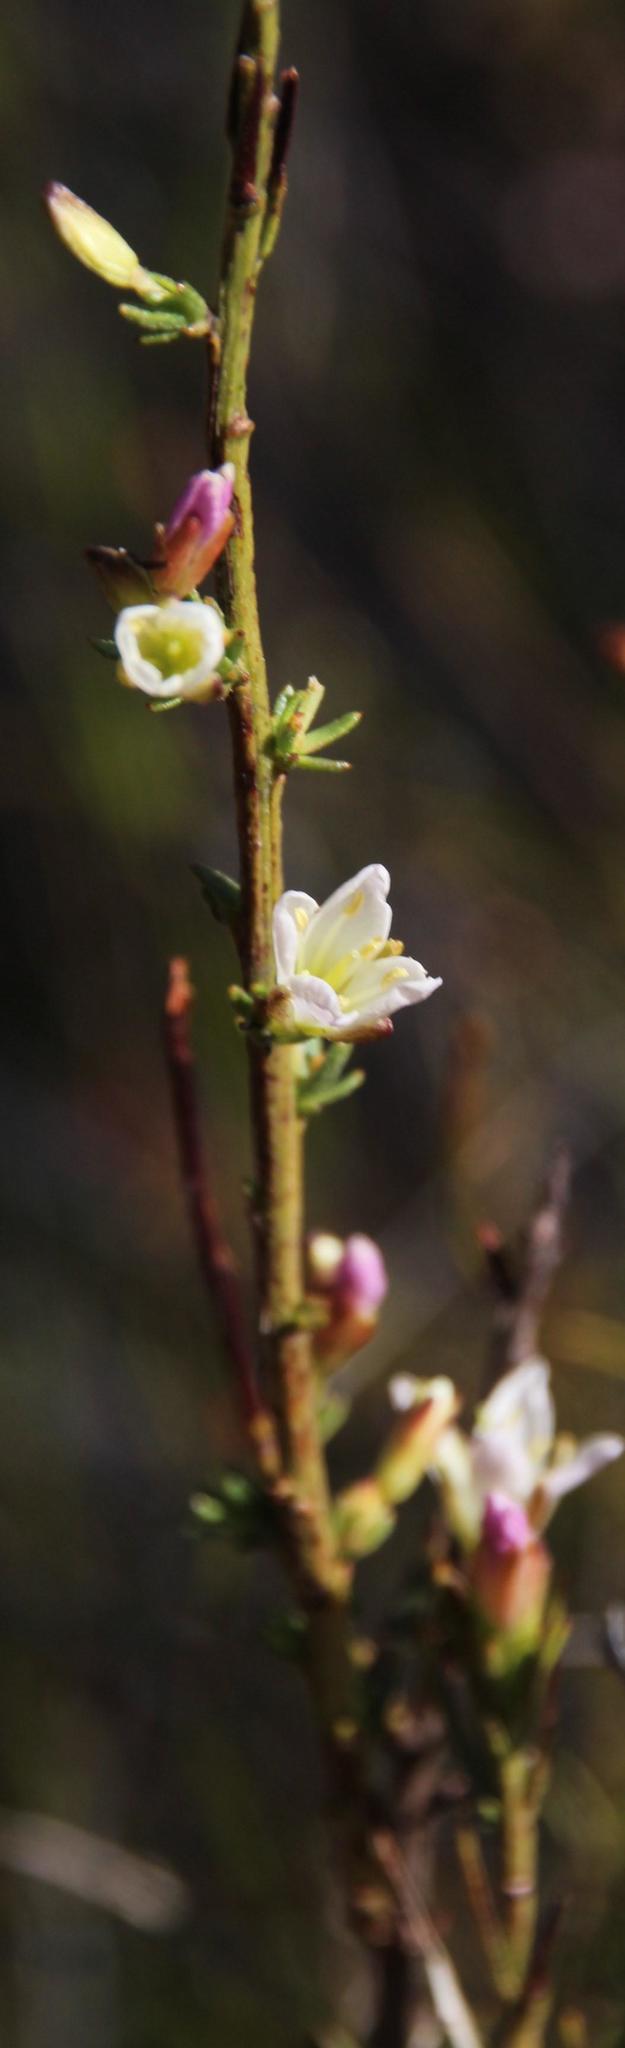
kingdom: Plantae
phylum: Tracheophyta
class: Magnoliopsida
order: Brassicales
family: Brassicaceae
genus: Heliophila
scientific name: Heliophila scoparia
